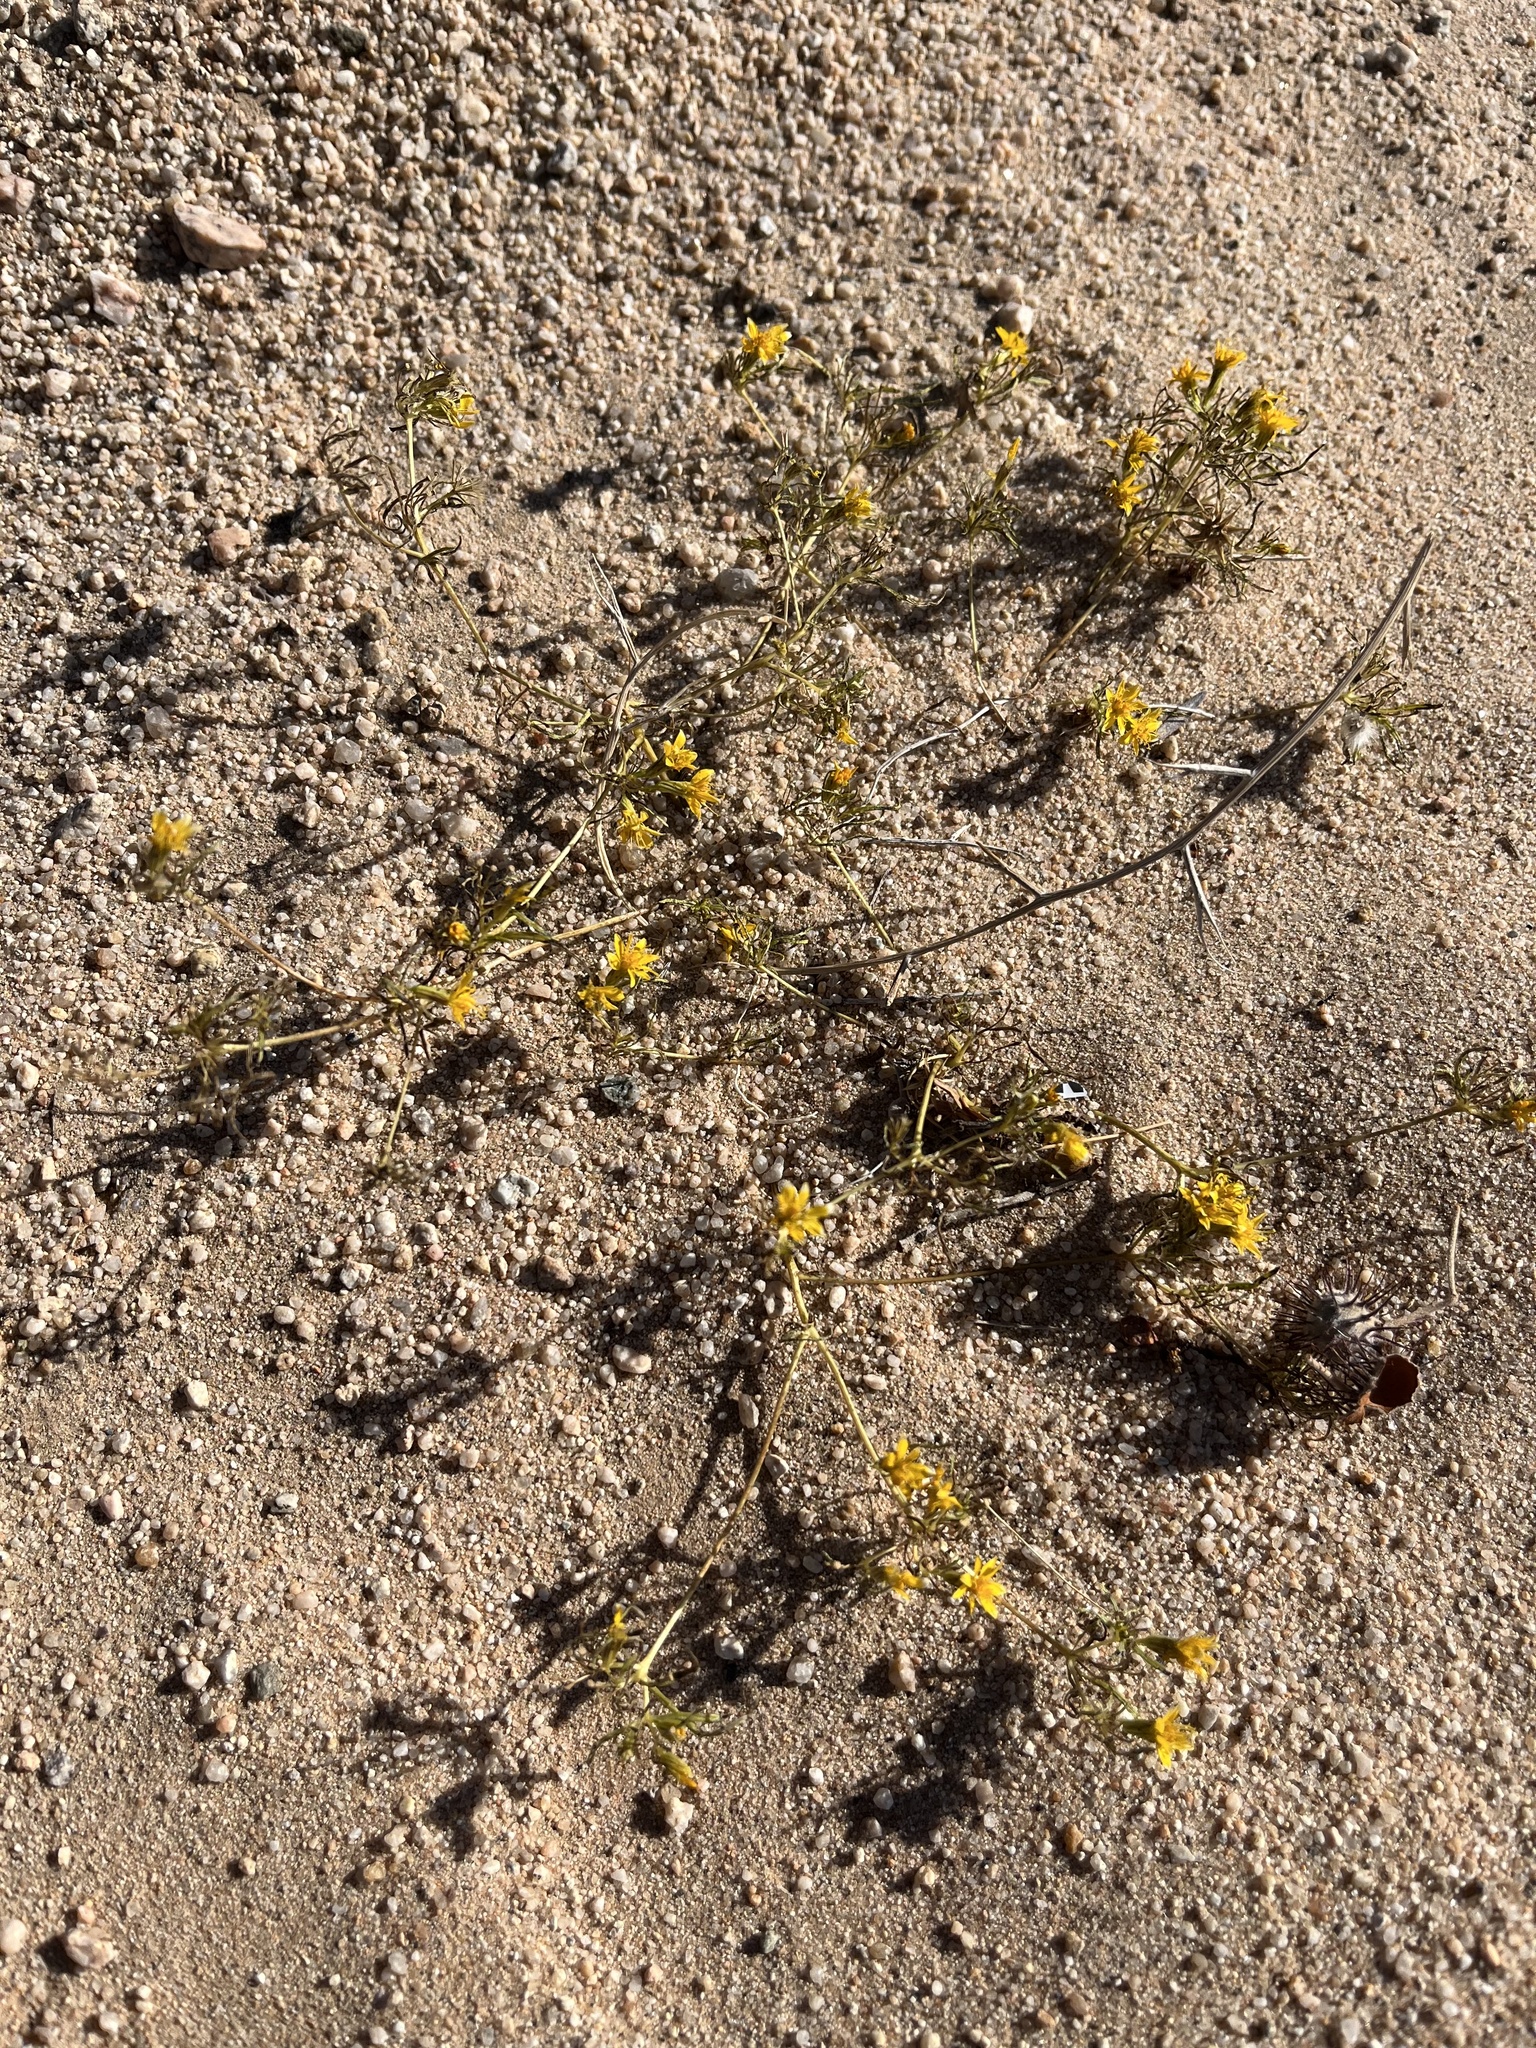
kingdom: Plantae
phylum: Tracheophyta
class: Magnoliopsida
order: Asterales
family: Asteraceae
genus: Pectis
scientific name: Pectis papposa
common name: Many-bristle chinchweed
